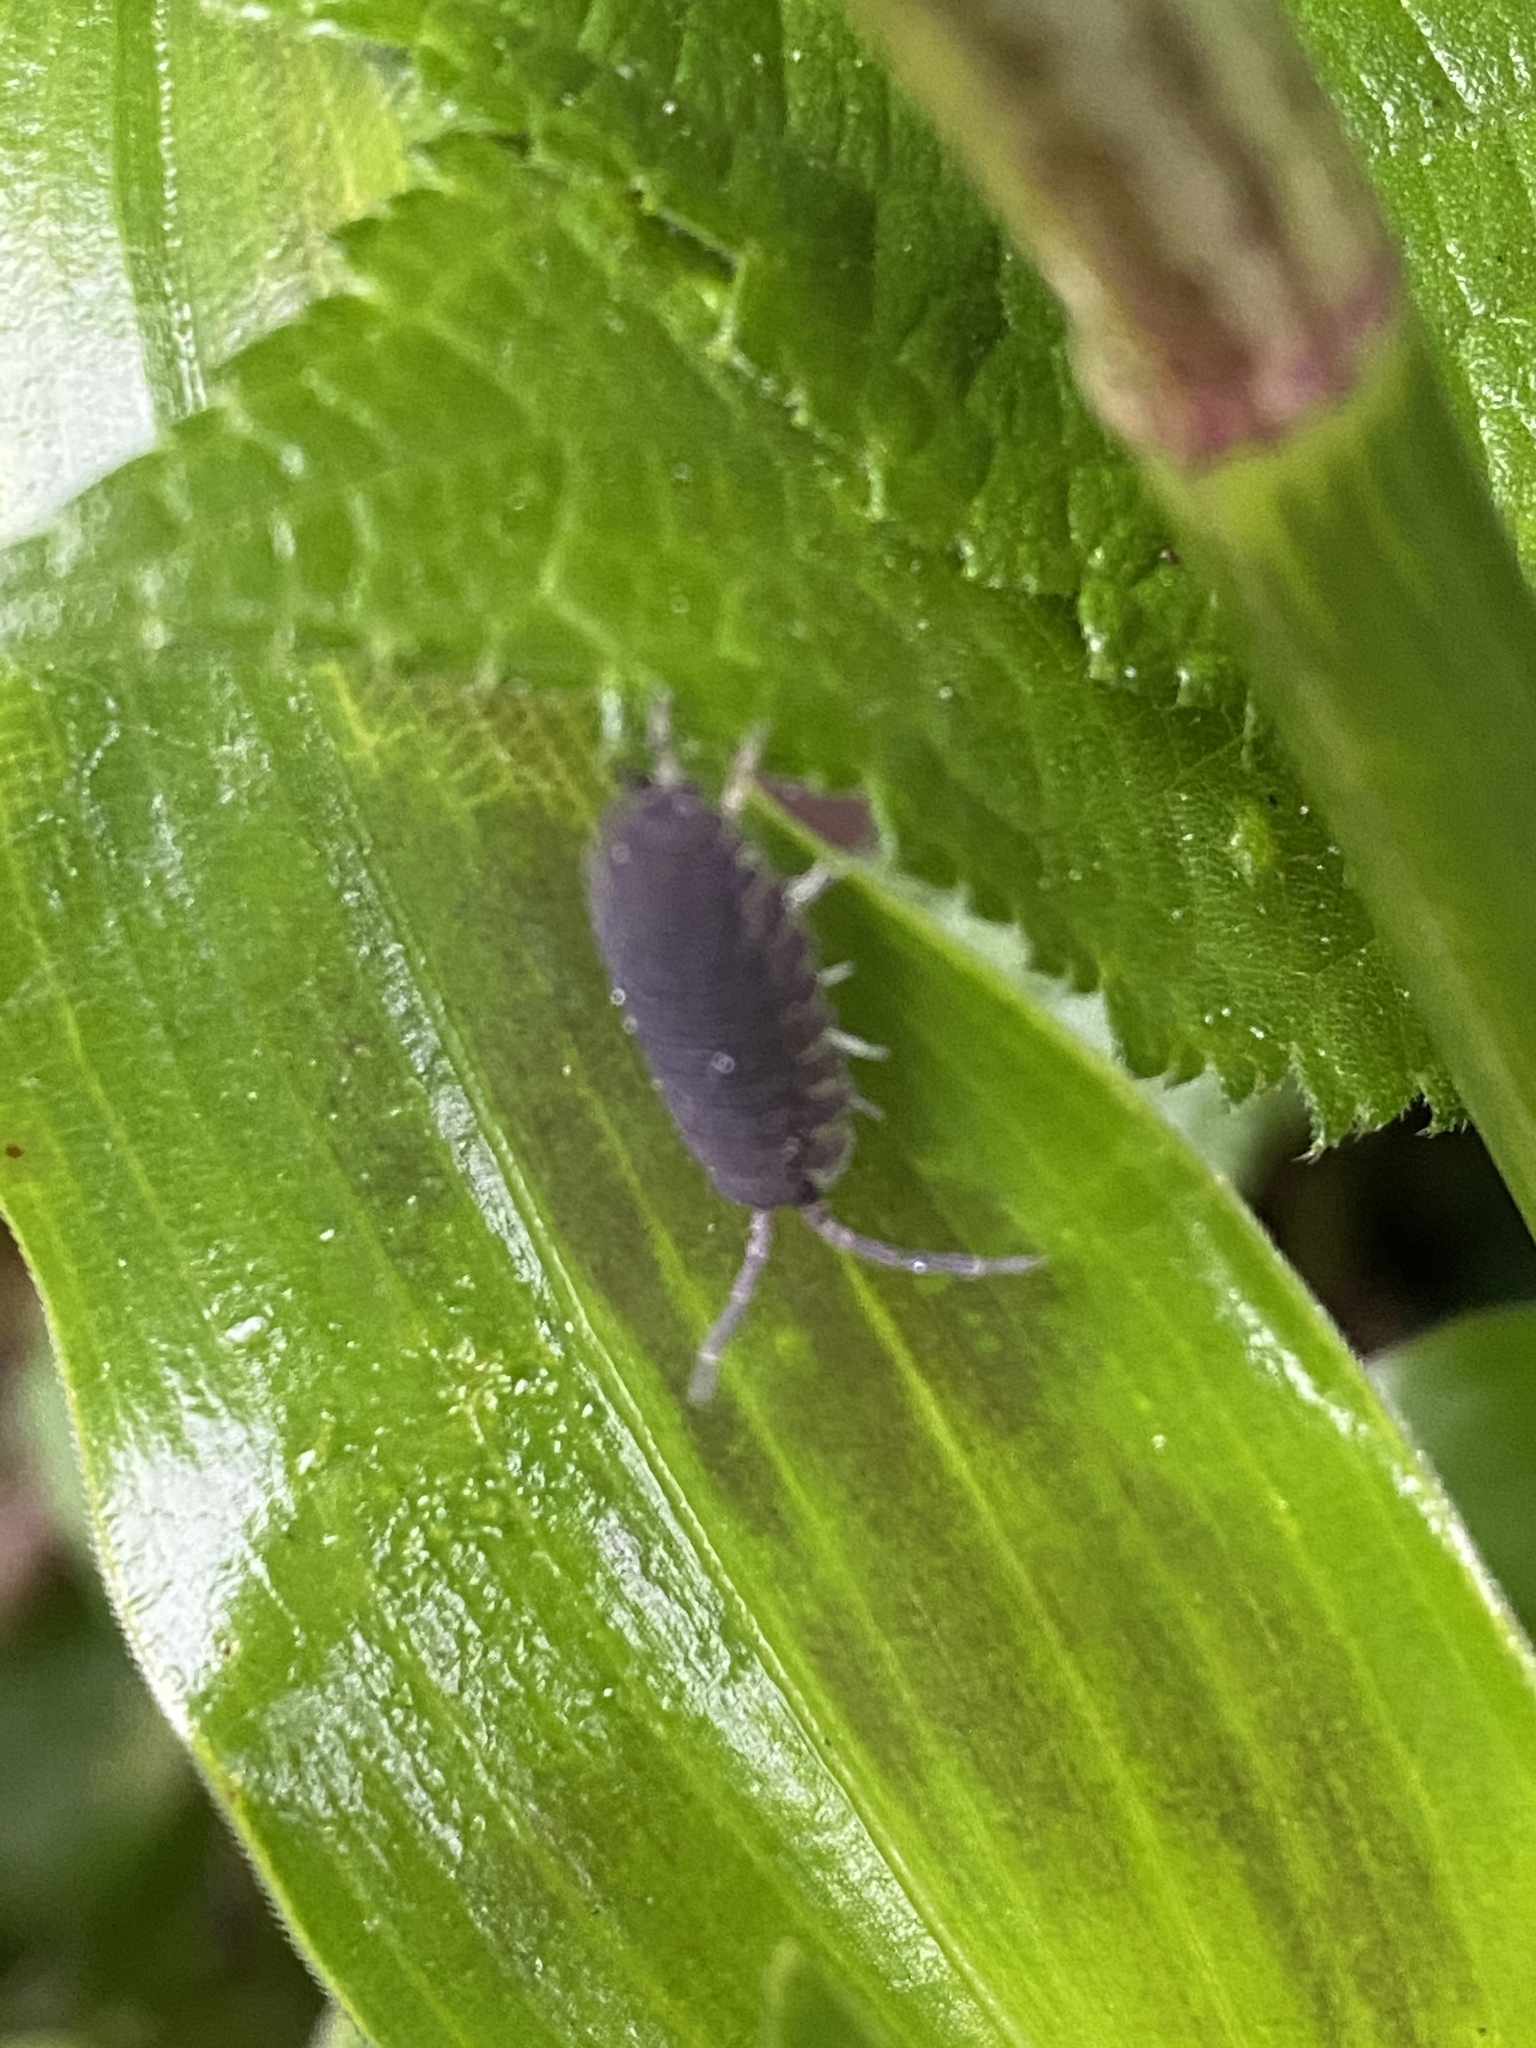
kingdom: Animalia
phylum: Arthropoda
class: Malacostraca
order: Isopoda
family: Porcellionidae
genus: Porcellio
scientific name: Porcellio scaber
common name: Common rough woodlouse
